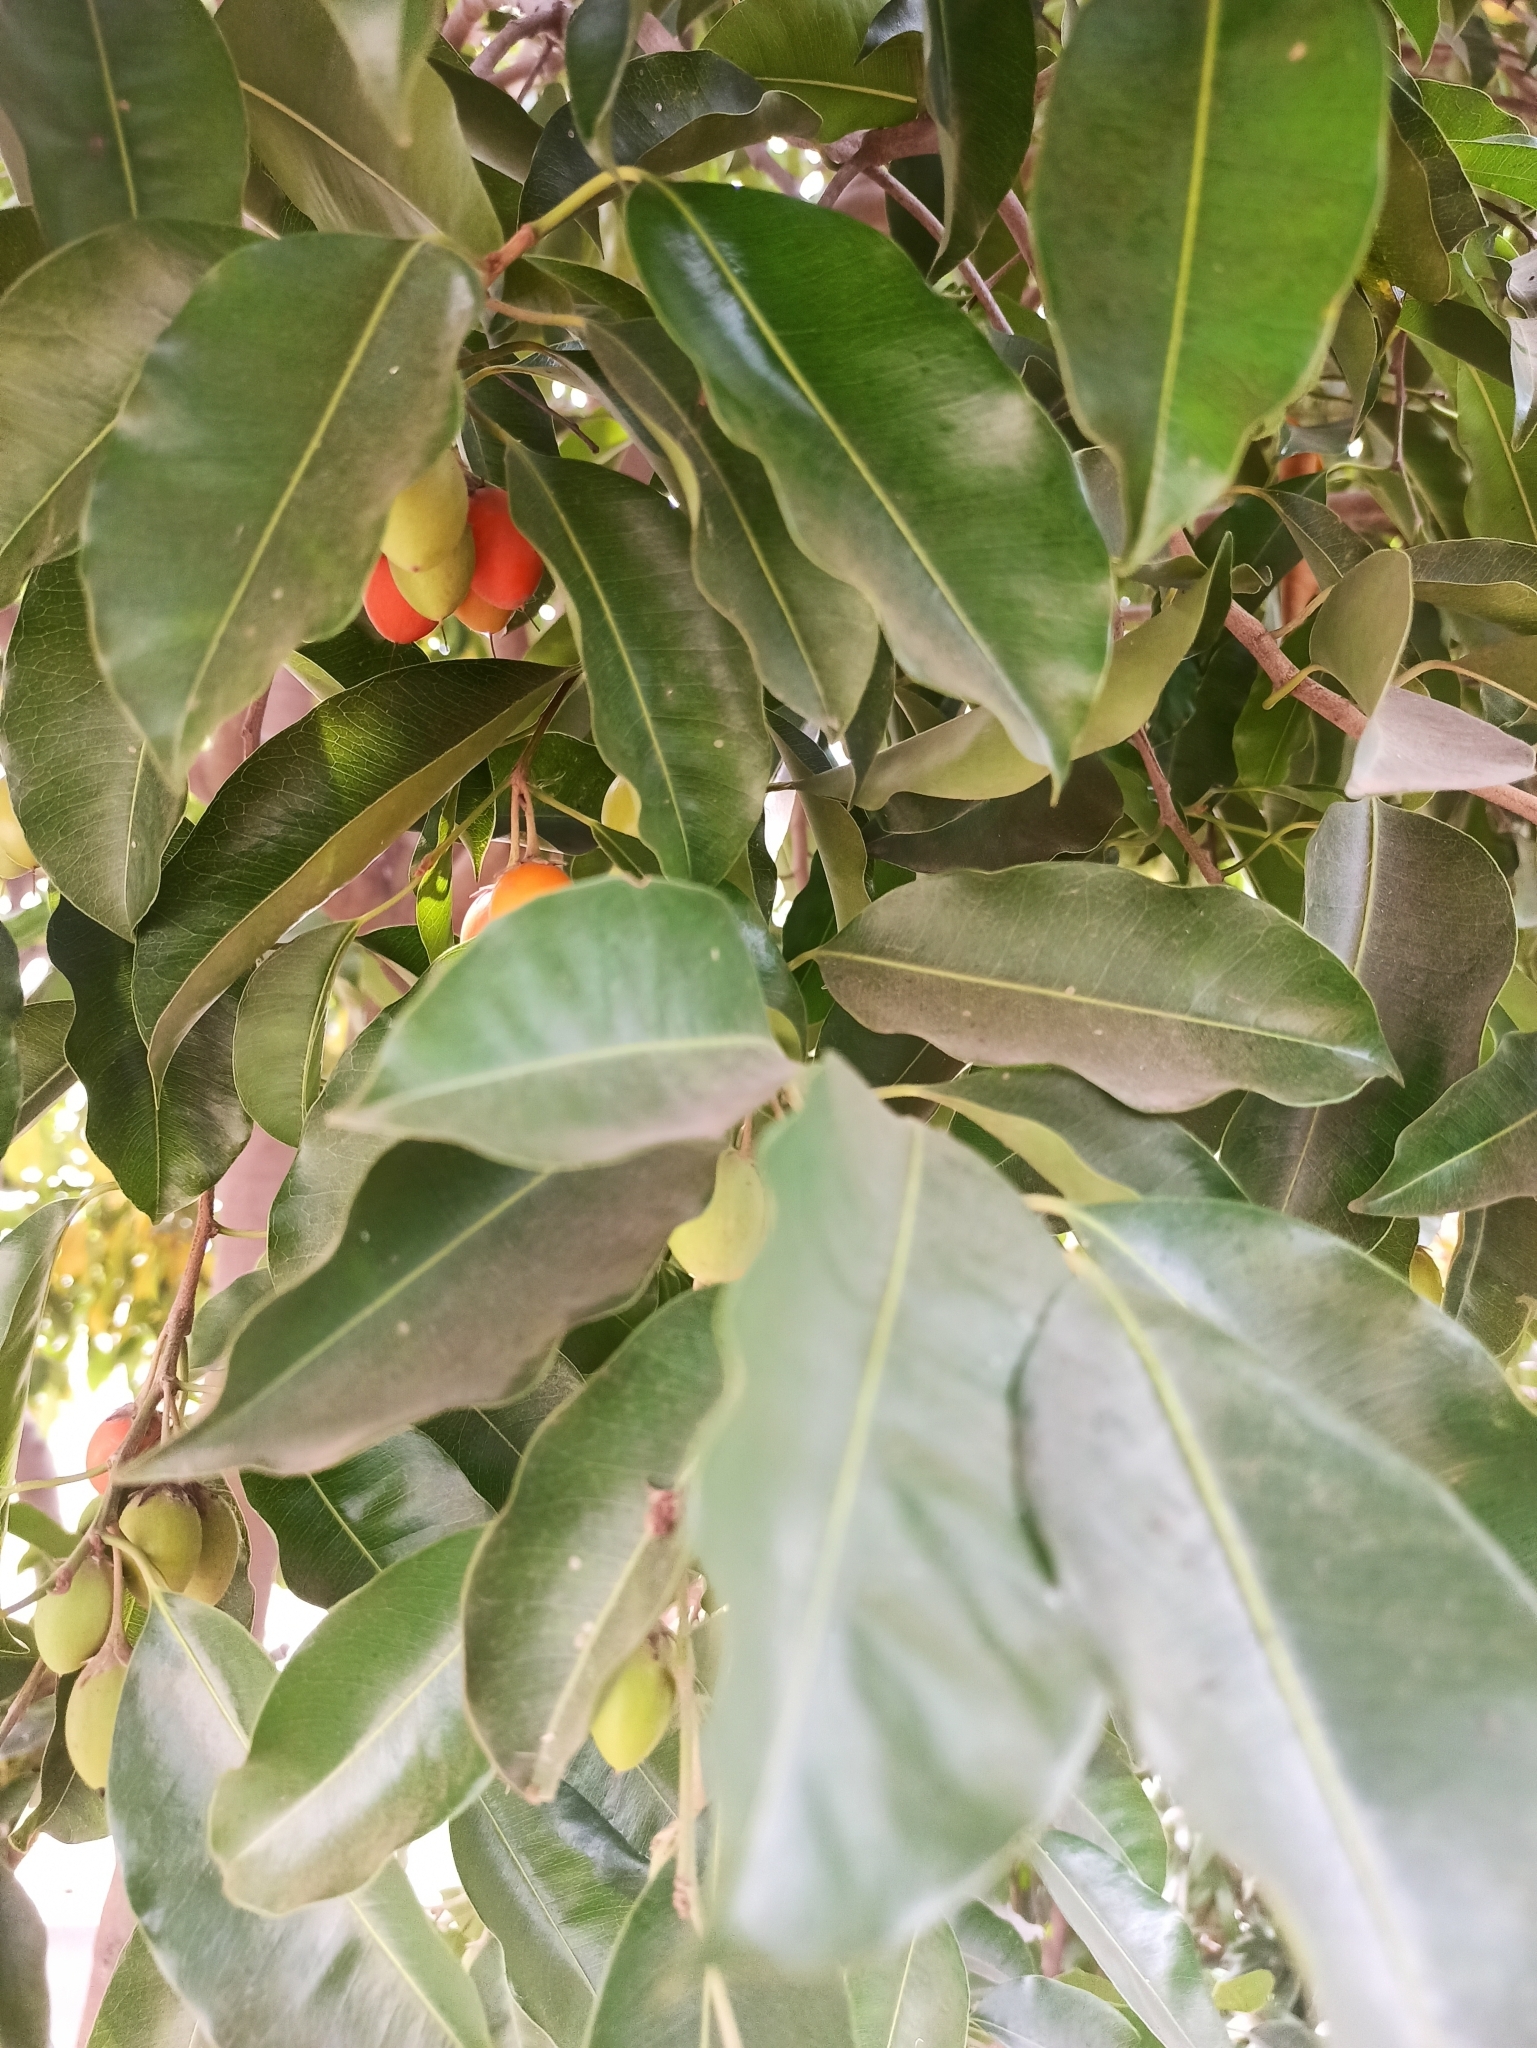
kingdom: Plantae
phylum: Tracheophyta
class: Magnoliopsida
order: Ericales
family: Sapotaceae
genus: Mimusops
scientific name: Mimusops elengi
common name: Spanish cherry
